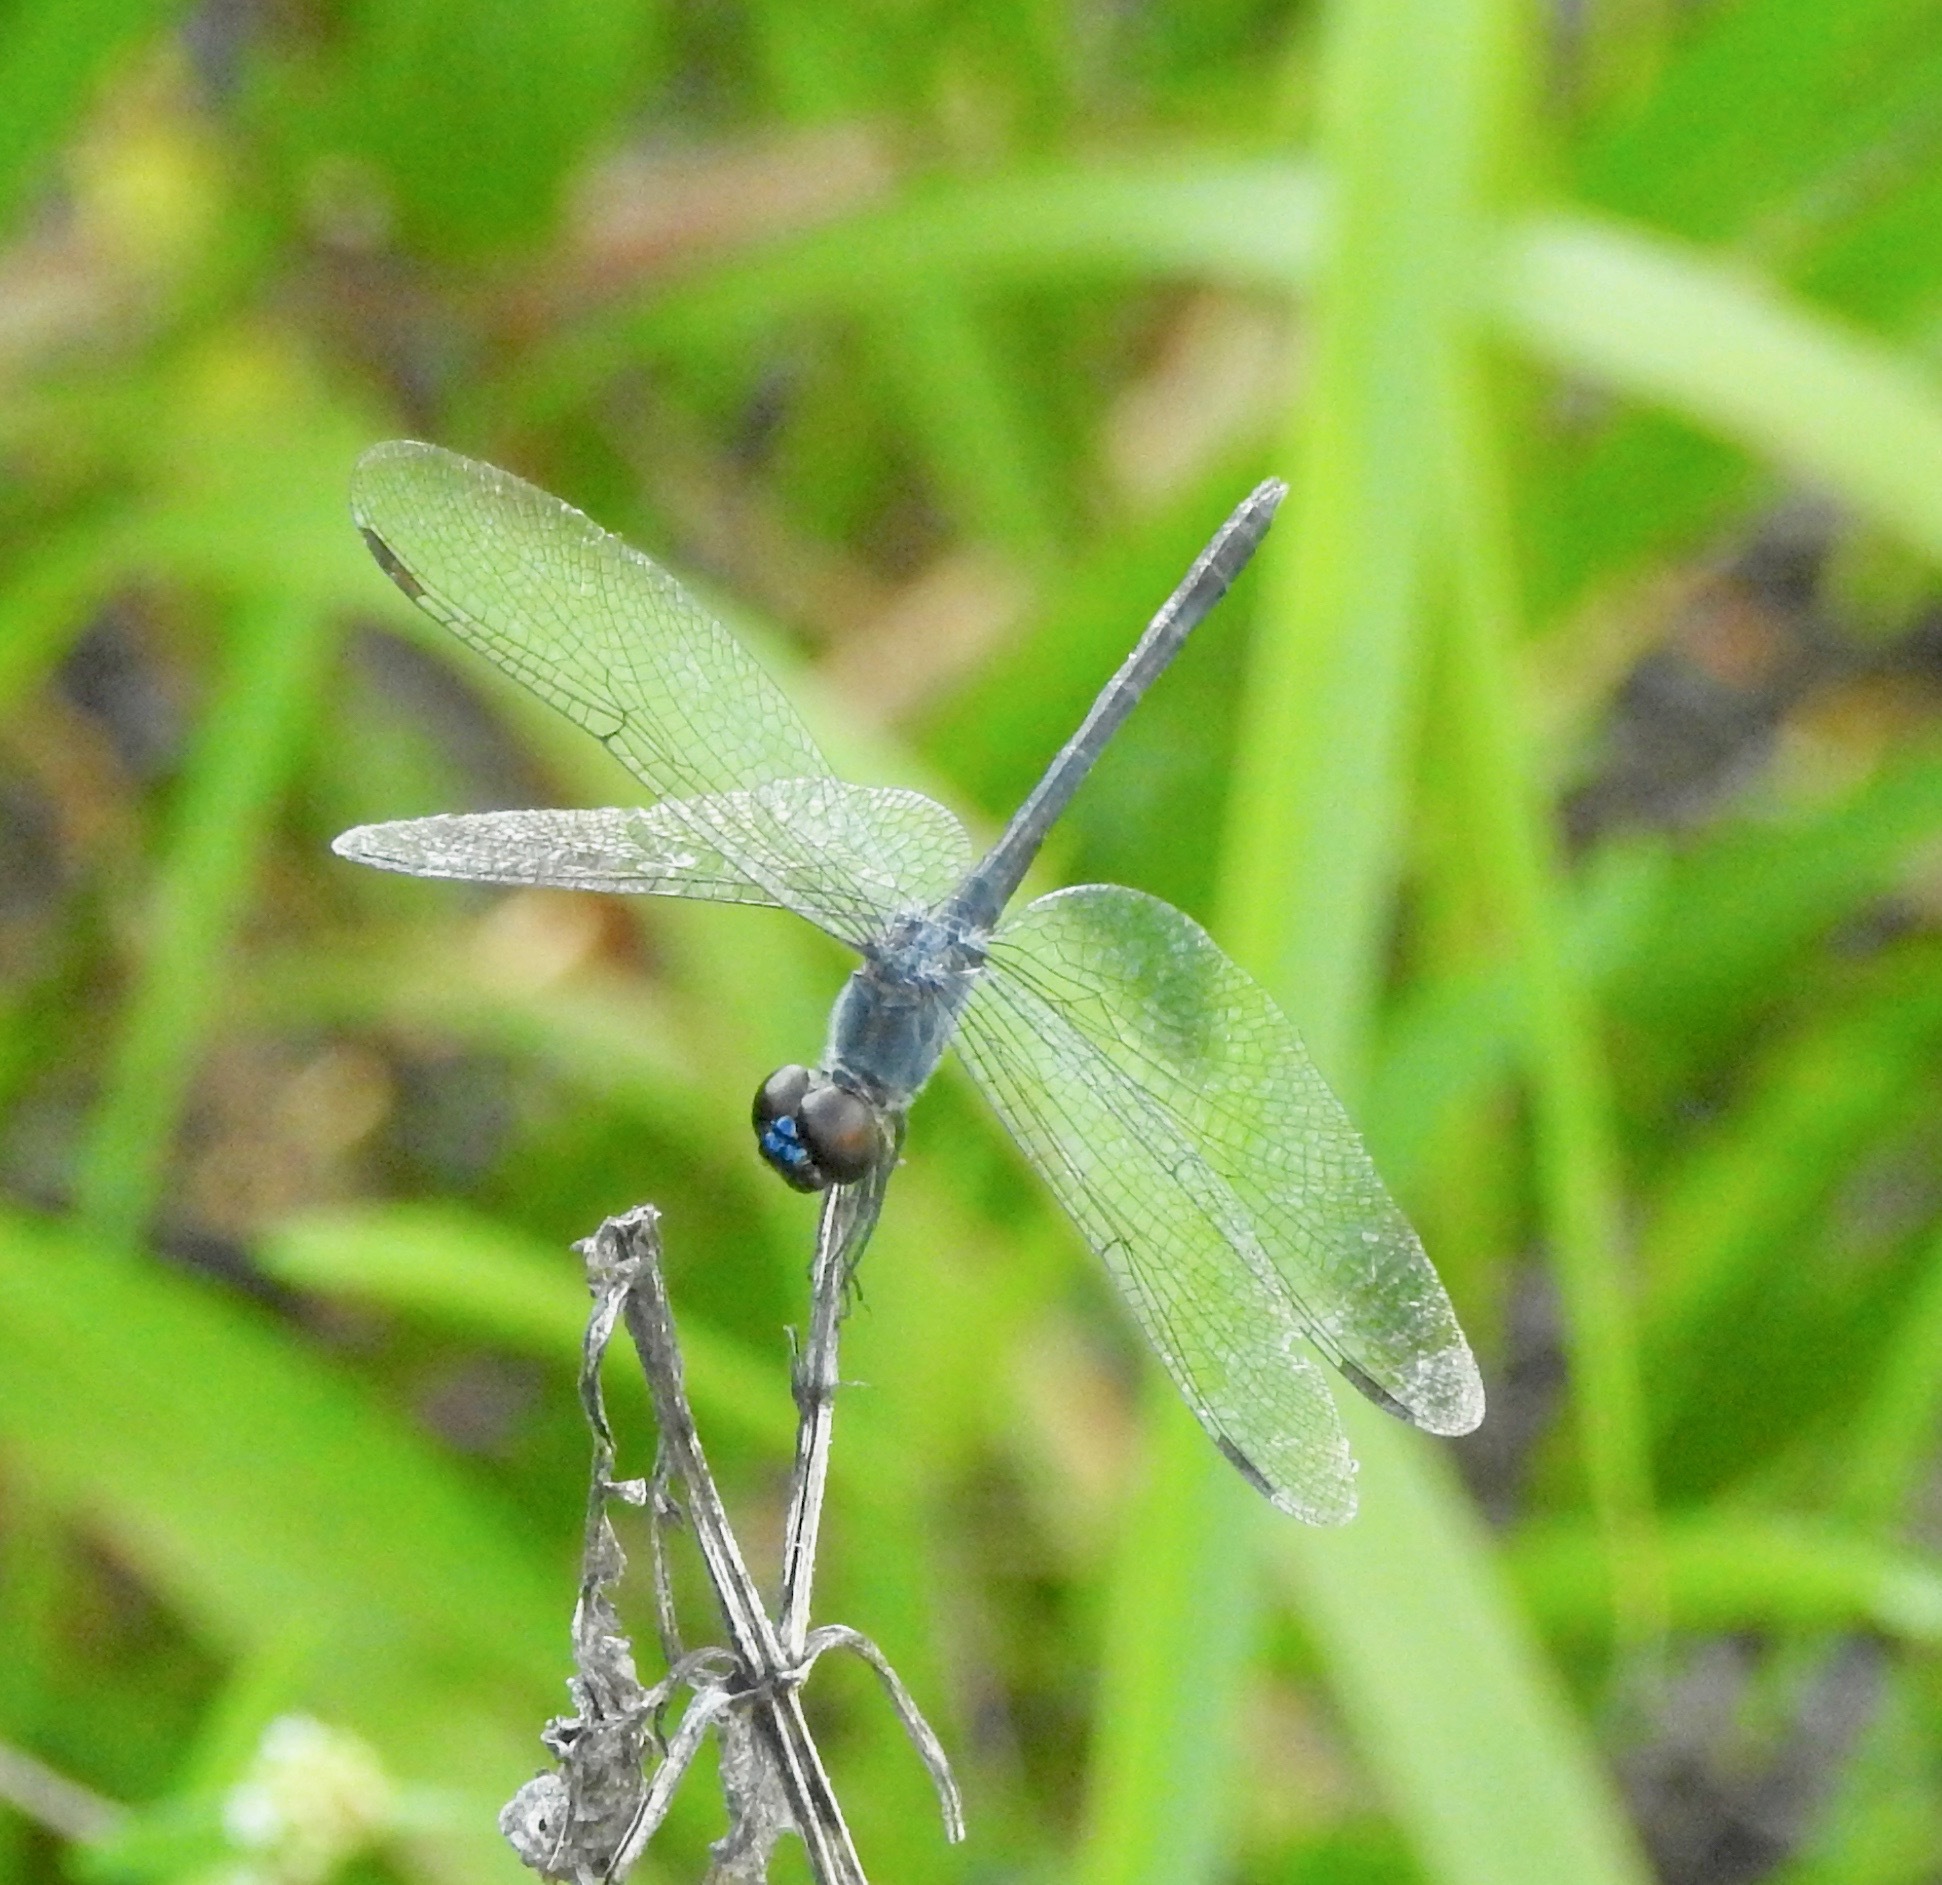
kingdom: Animalia
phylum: Arthropoda
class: Insecta
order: Odonata
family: Libellulidae
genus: Erythrodiplax
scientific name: Erythrodiplax berenice
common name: Seaside dragonlet
